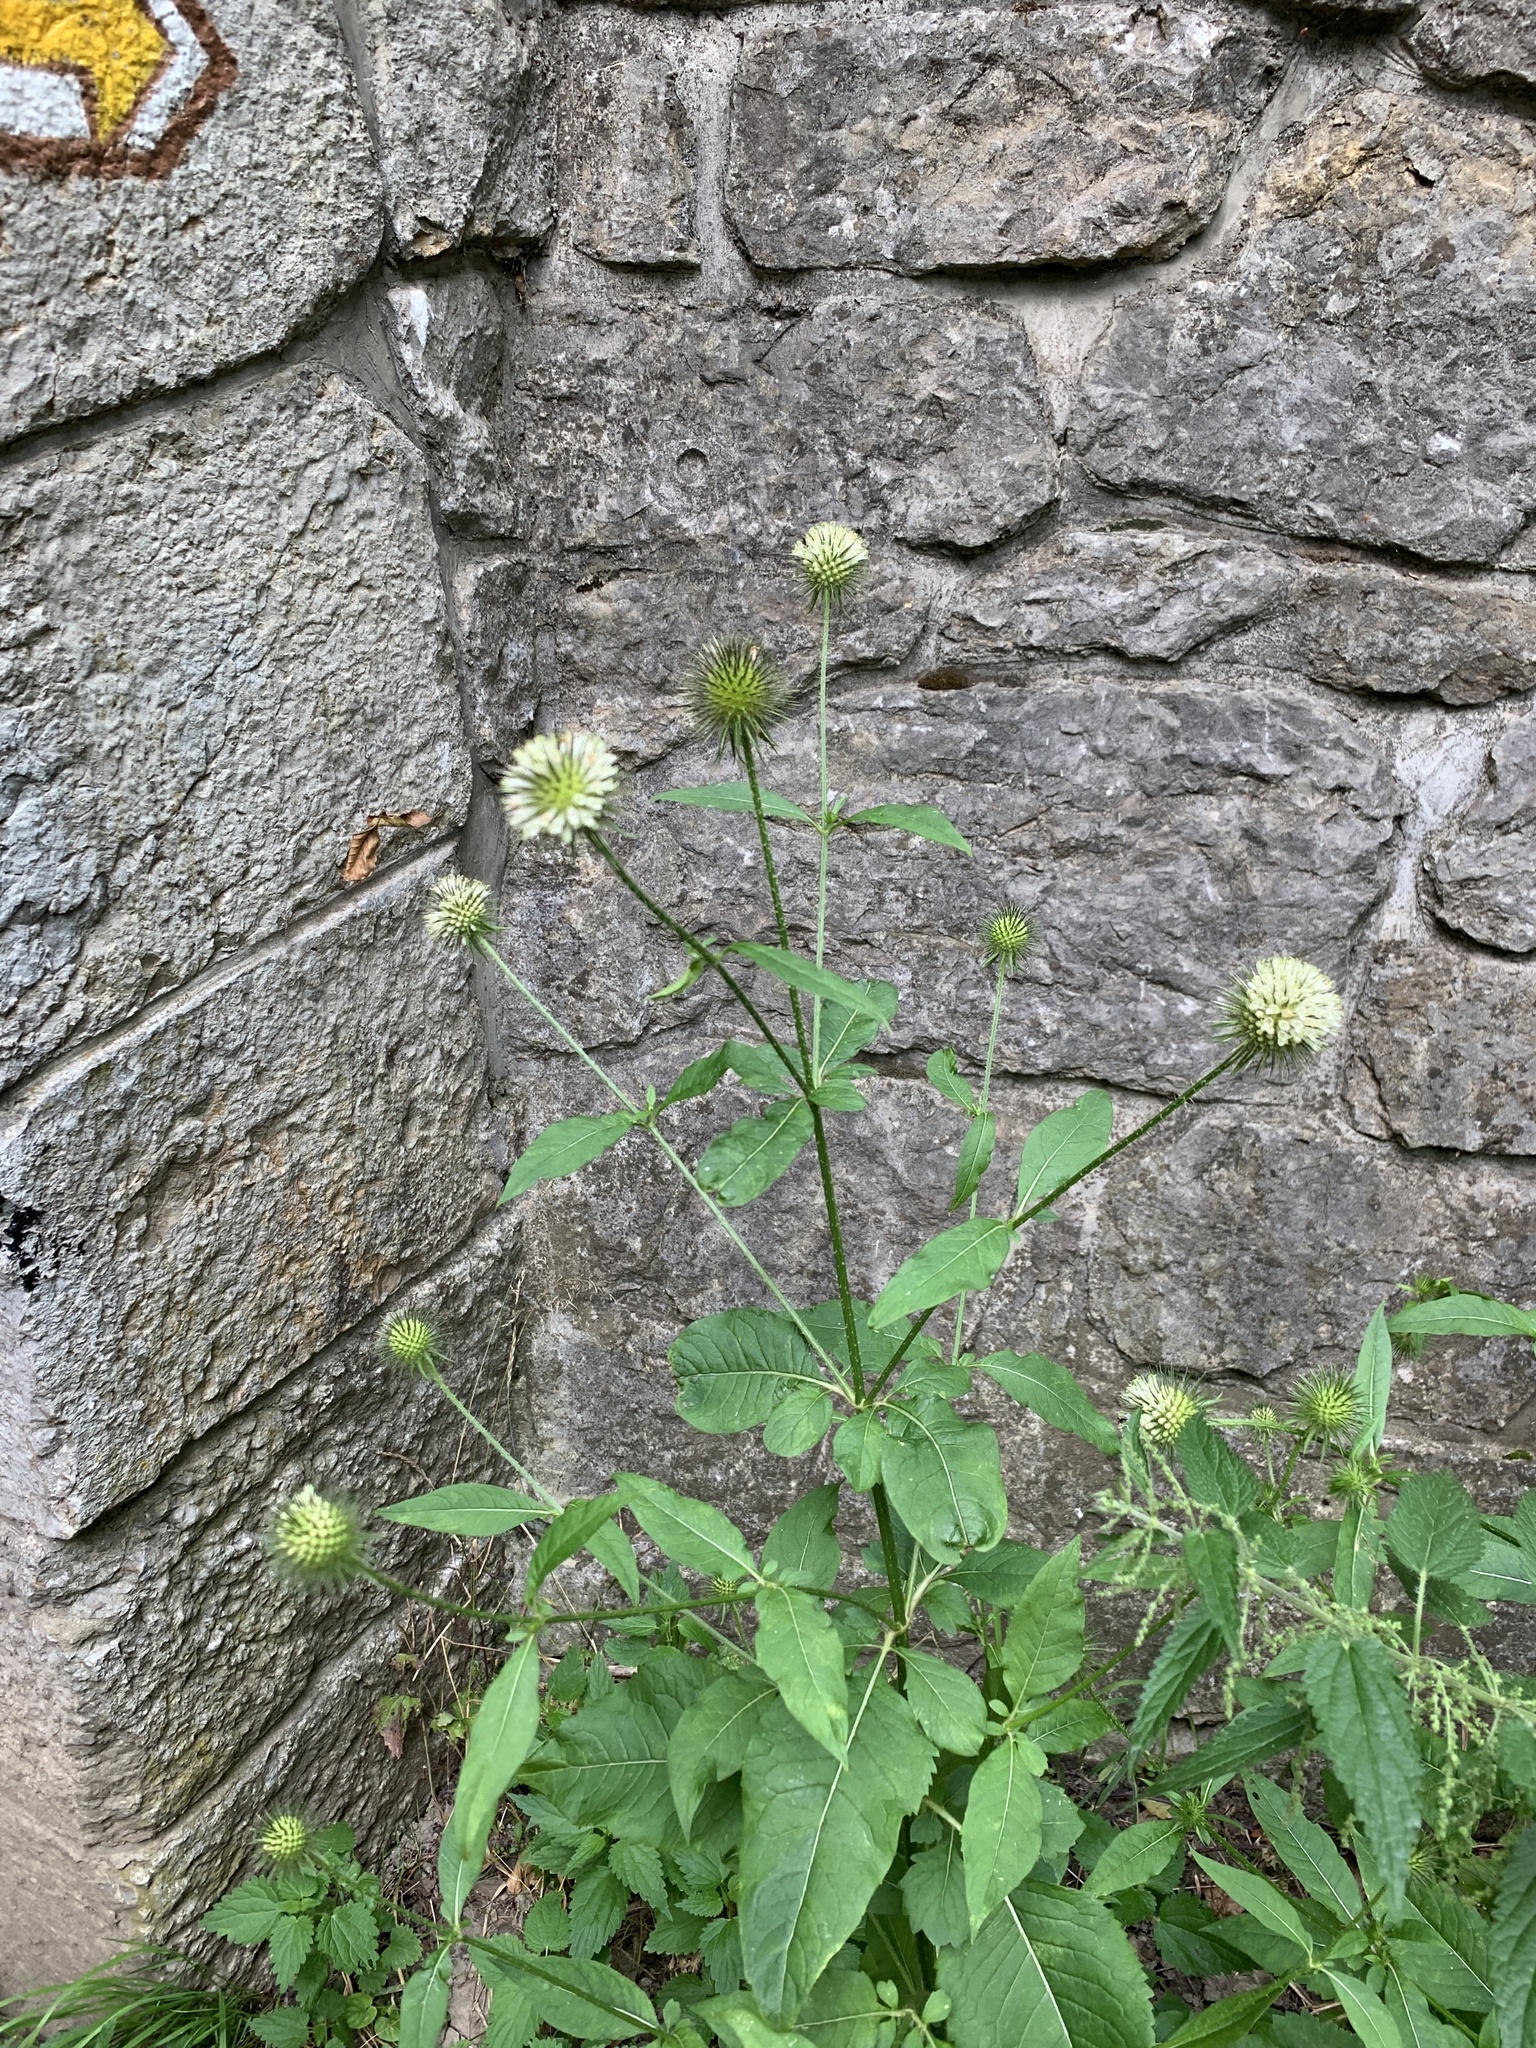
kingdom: Plantae
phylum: Tracheophyta
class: Magnoliopsida
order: Dipsacales
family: Caprifoliaceae
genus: Dipsacus
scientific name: Dipsacus strigosus
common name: Yellow-flowered teasel
